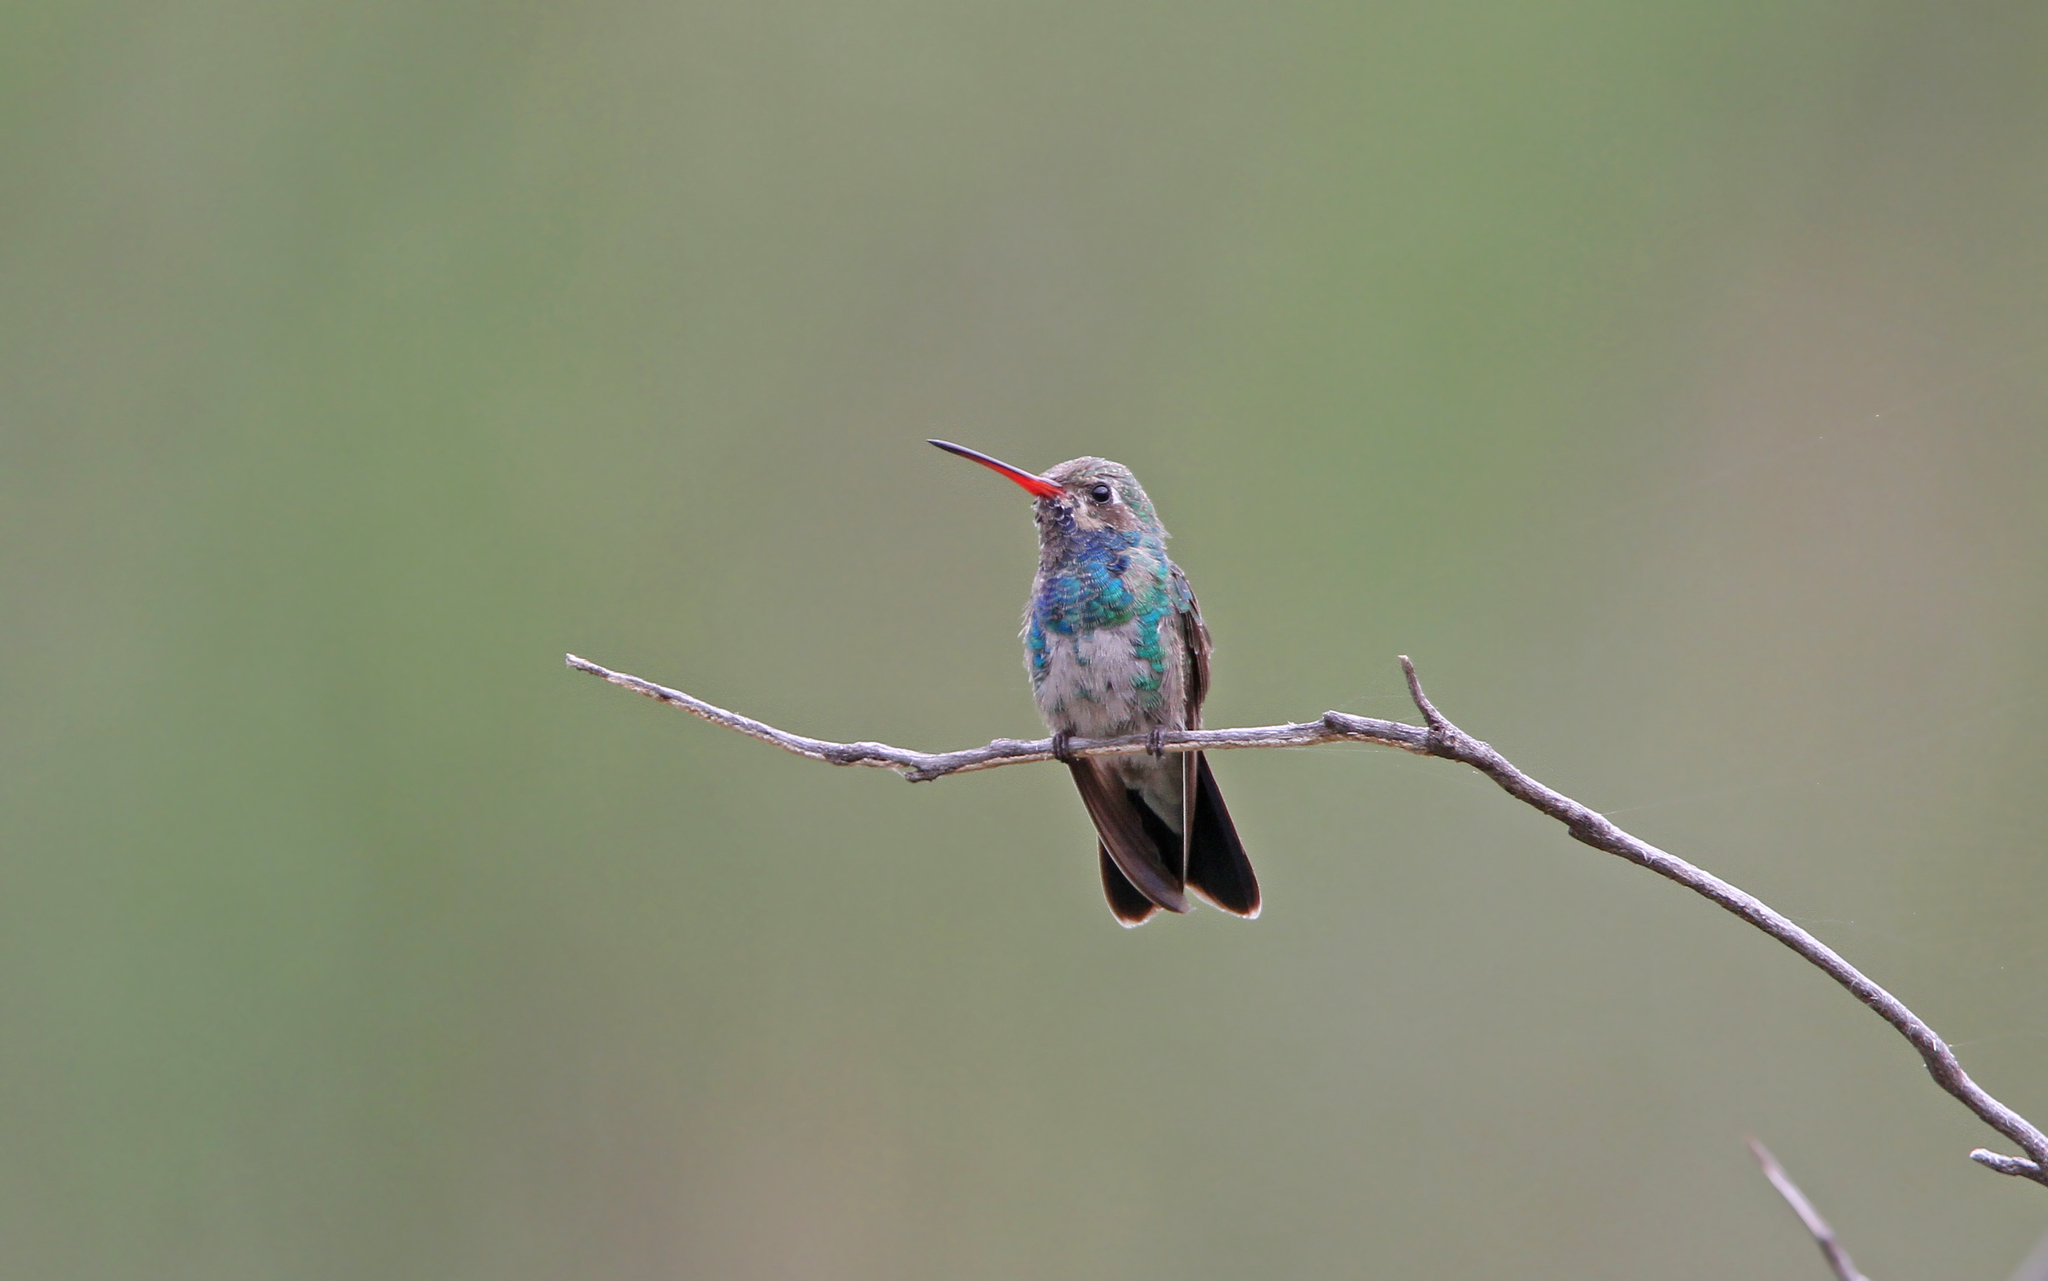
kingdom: Animalia
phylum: Chordata
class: Aves
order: Apodiformes
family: Trochilidae
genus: Cynanthus
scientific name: Cynanthus latirostris
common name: Broad-billed hummingbird
